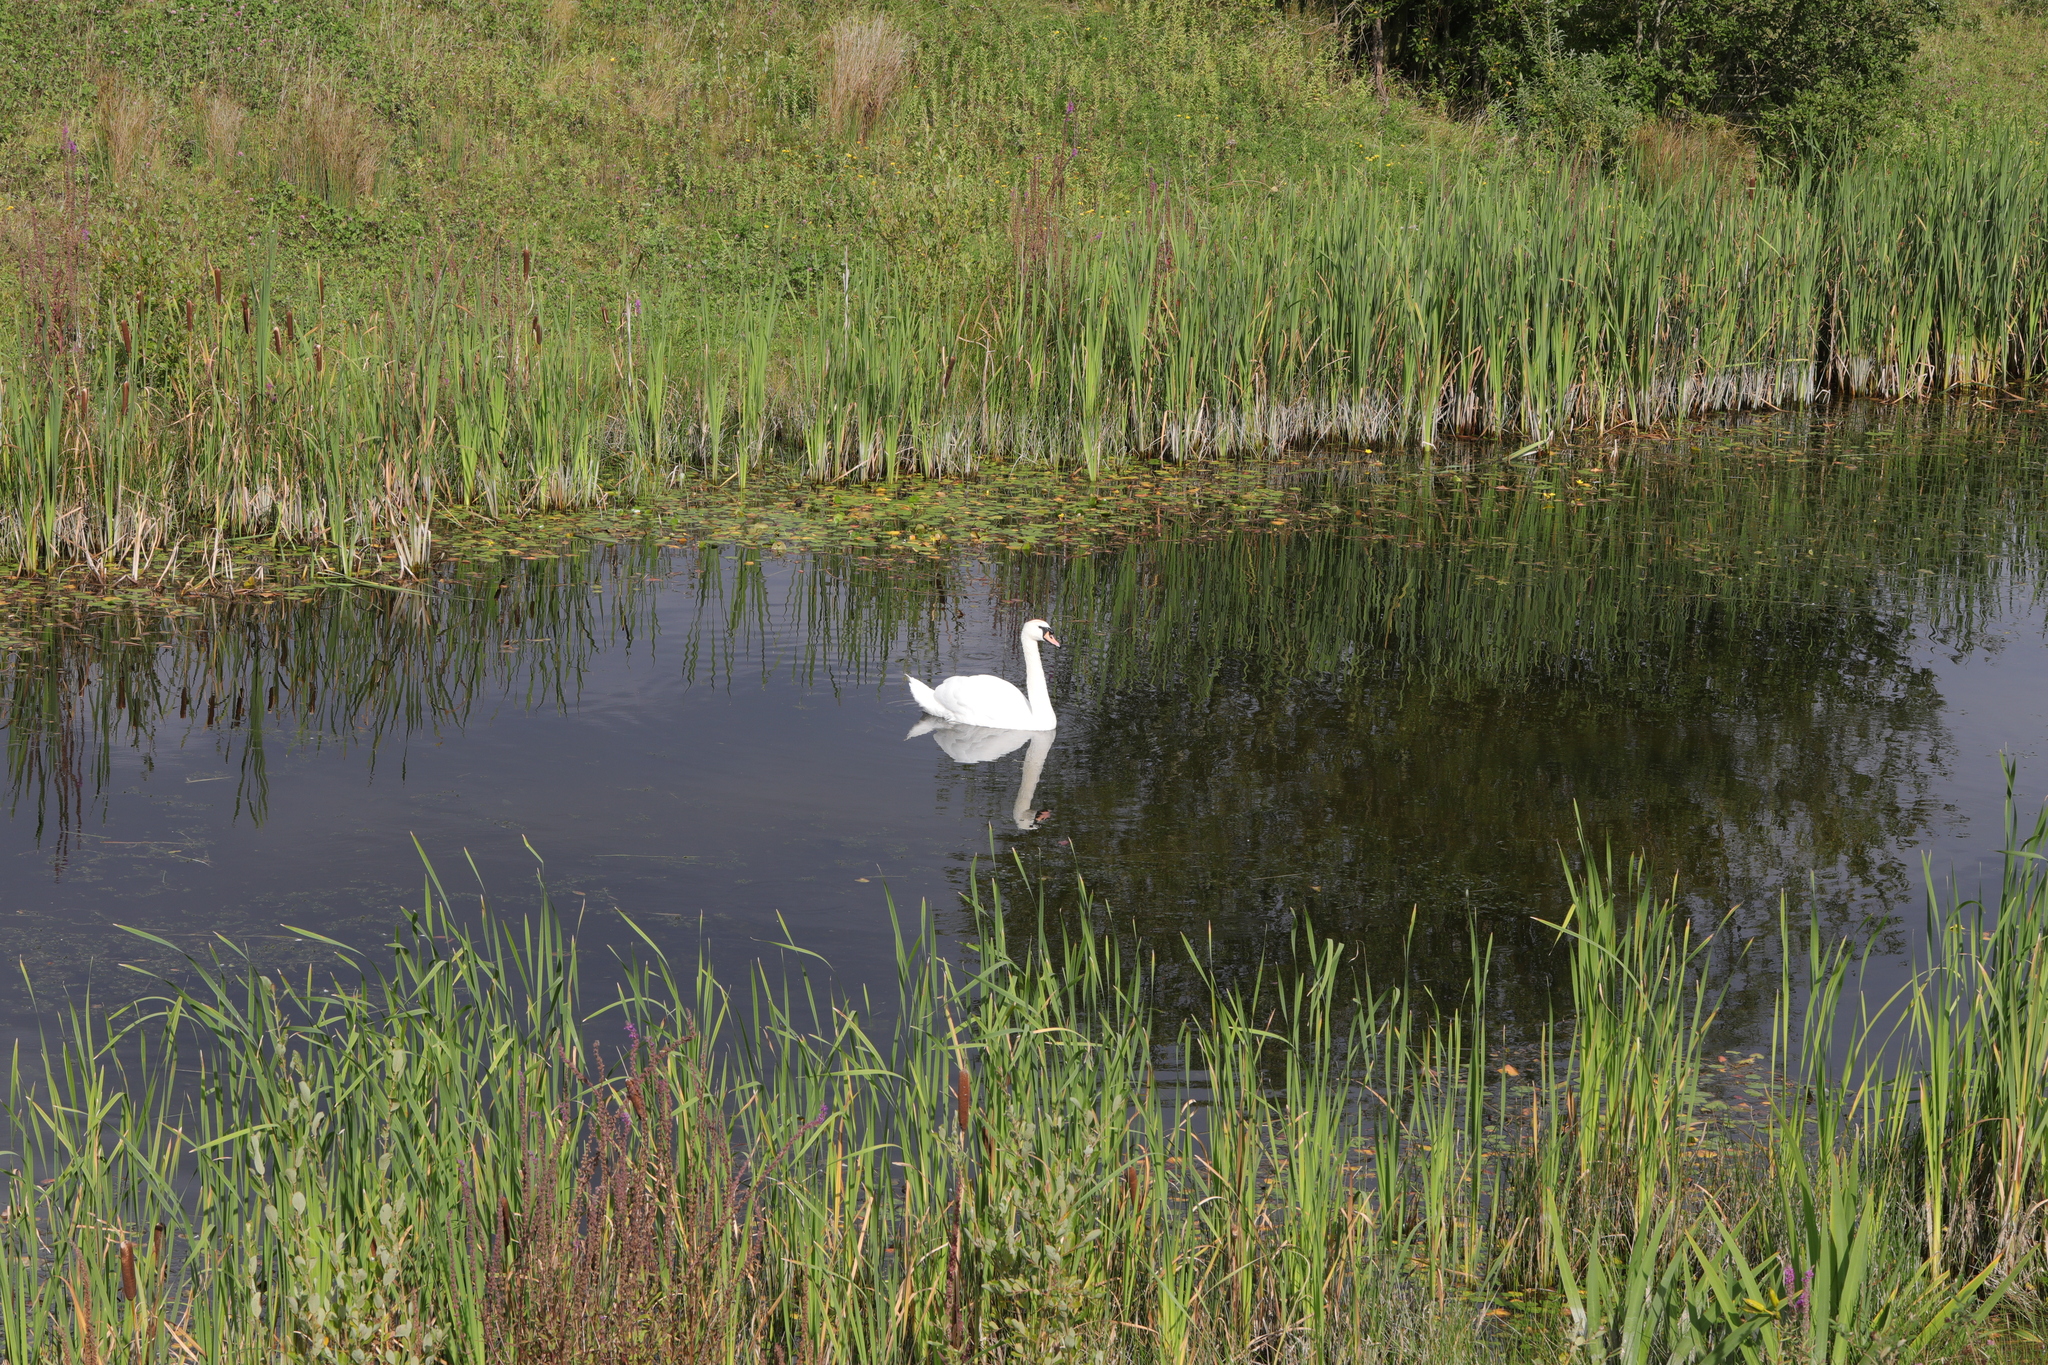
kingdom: Animalia
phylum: Chordata
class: Aves
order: Anseriformes
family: Anatidae
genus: Cygnus
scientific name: Cygnus olor
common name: Mute swan
